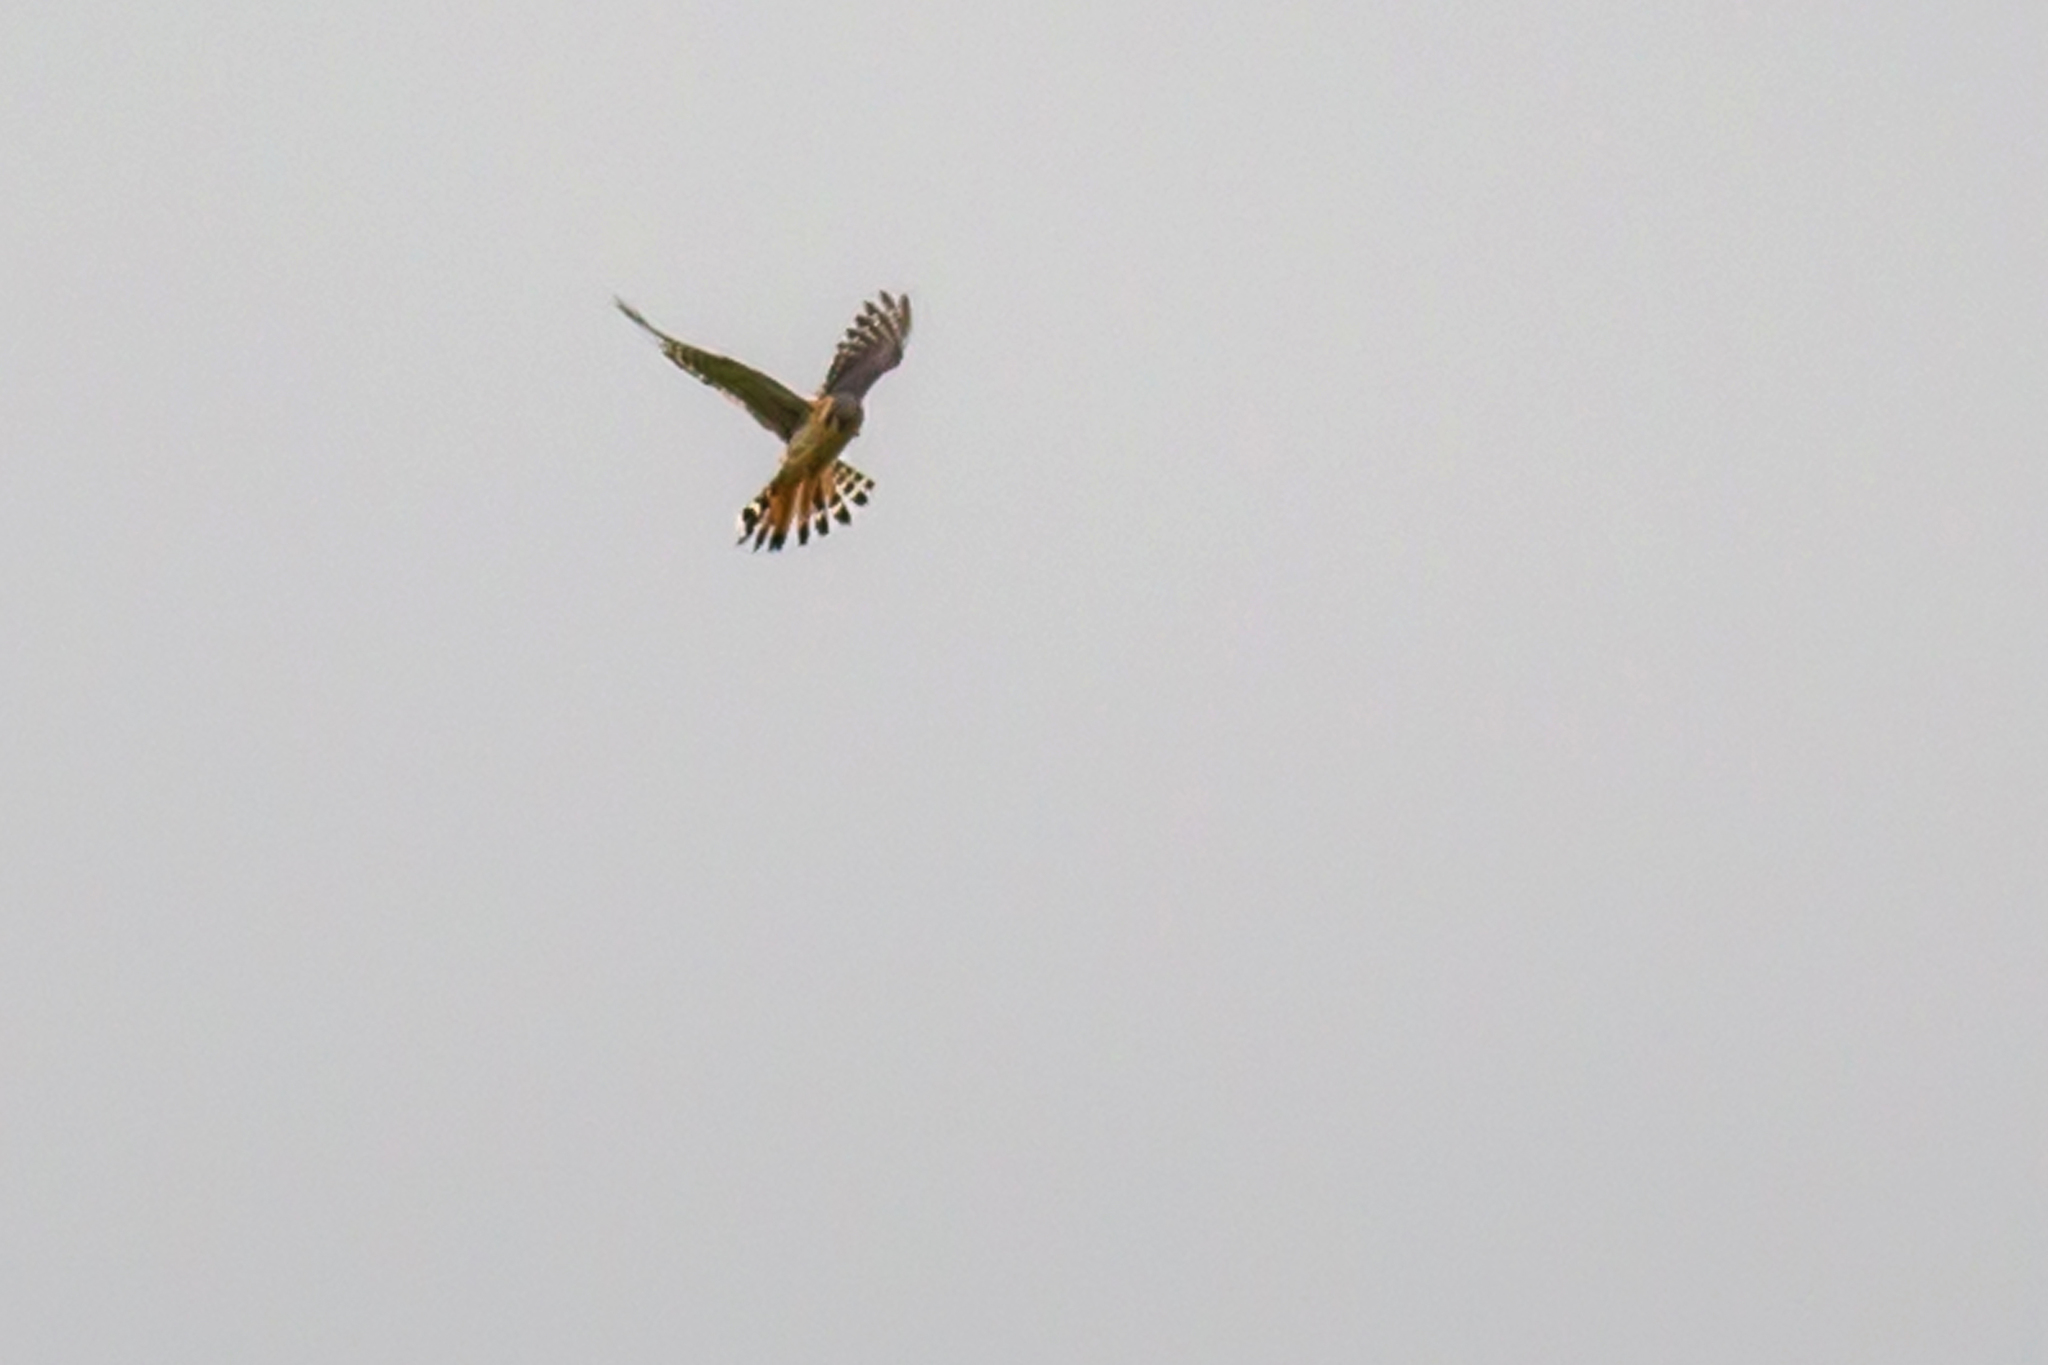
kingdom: Animalia
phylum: Chordata
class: Aves
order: Falconiformes
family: Falconidae
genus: Falco
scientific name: Falco sparverius
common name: American kestrel
